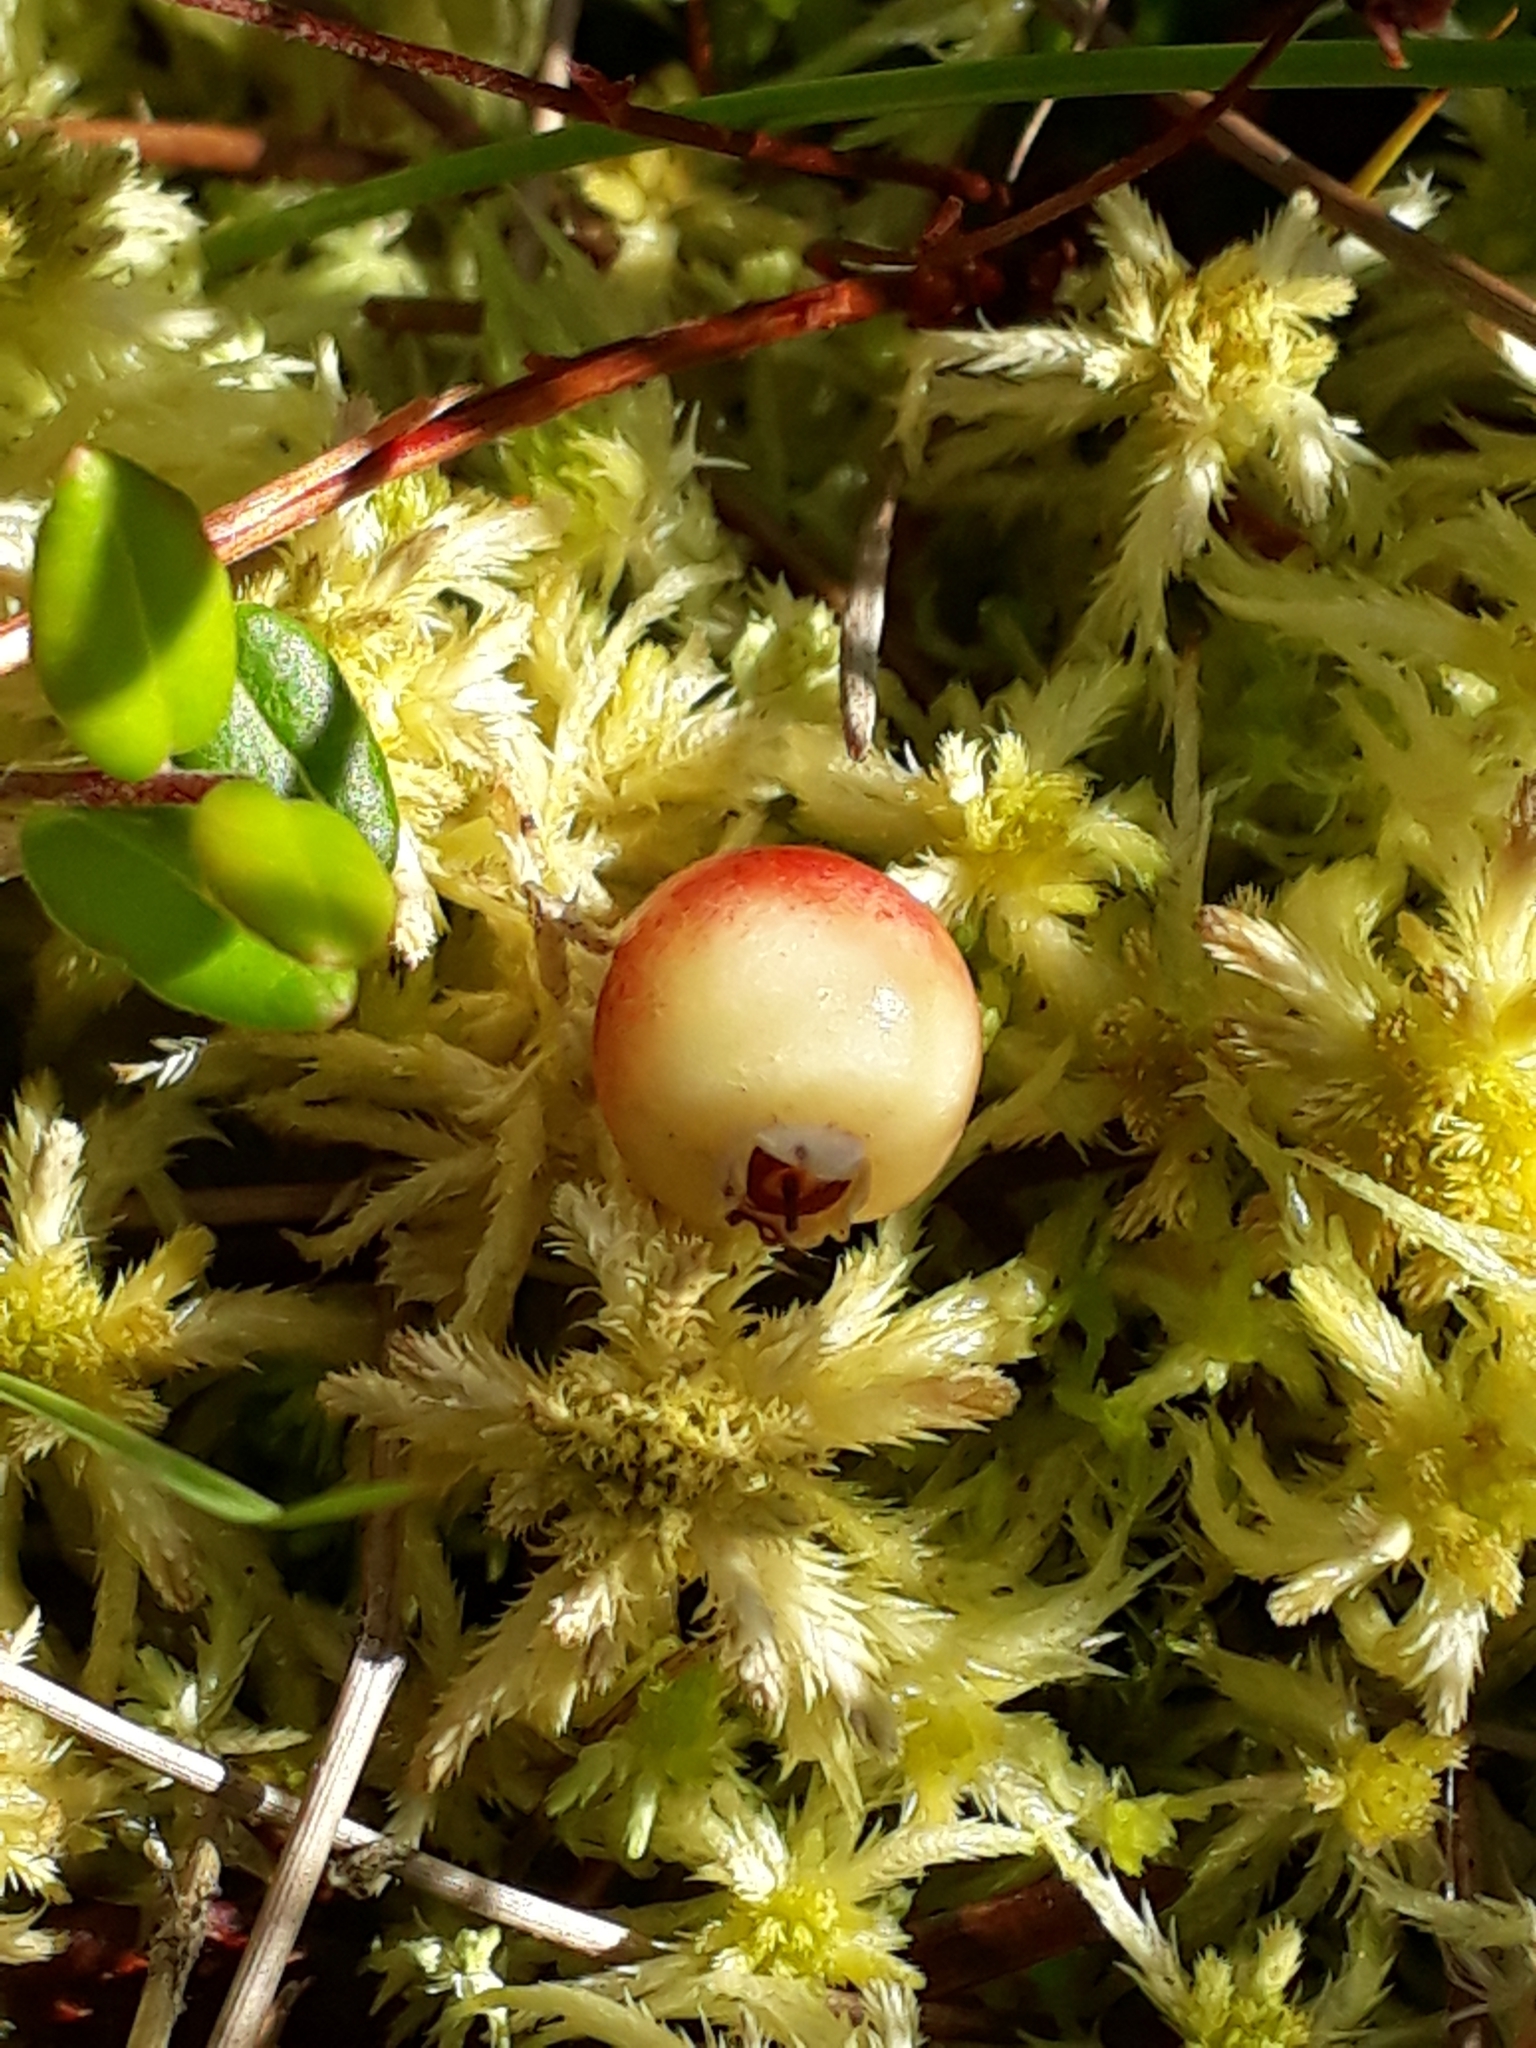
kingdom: Plantae
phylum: Tracheophyta
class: Magnoliopsida
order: Ericales
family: Ericaceae
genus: Vaccinium
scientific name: Vaccinium oxycoccos
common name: Cranberry
